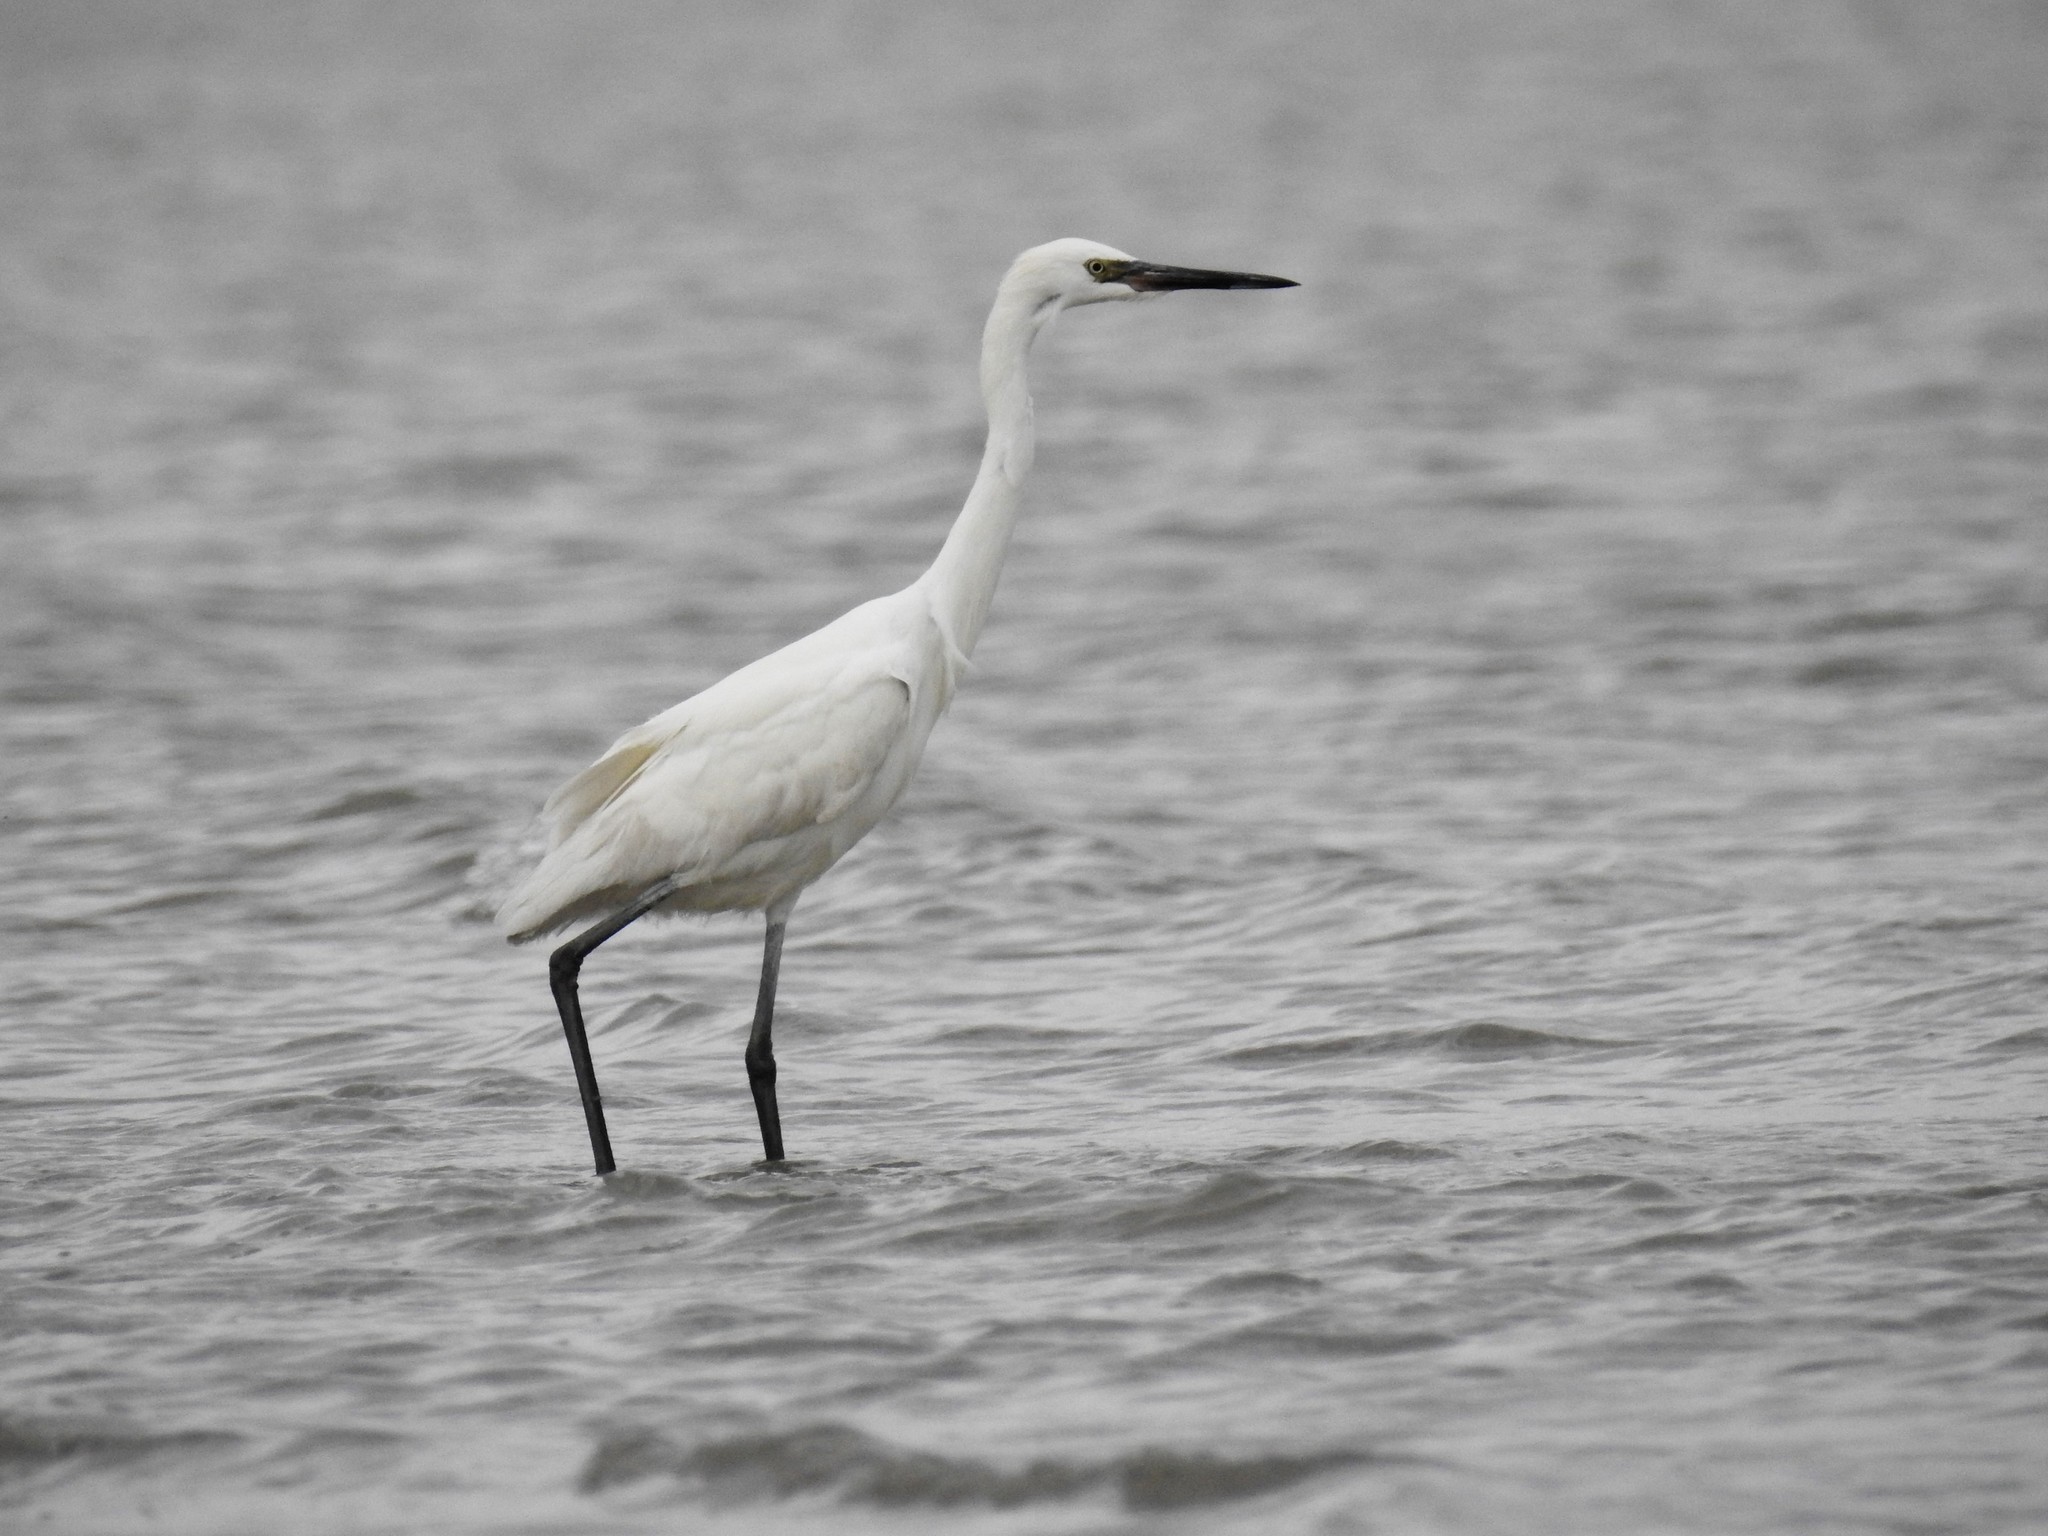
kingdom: Animalia
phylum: Chordata
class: Aves
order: Pelecaniformes
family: Ardeidae
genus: Egretta
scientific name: Egretta rufescens
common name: Reddish egret
